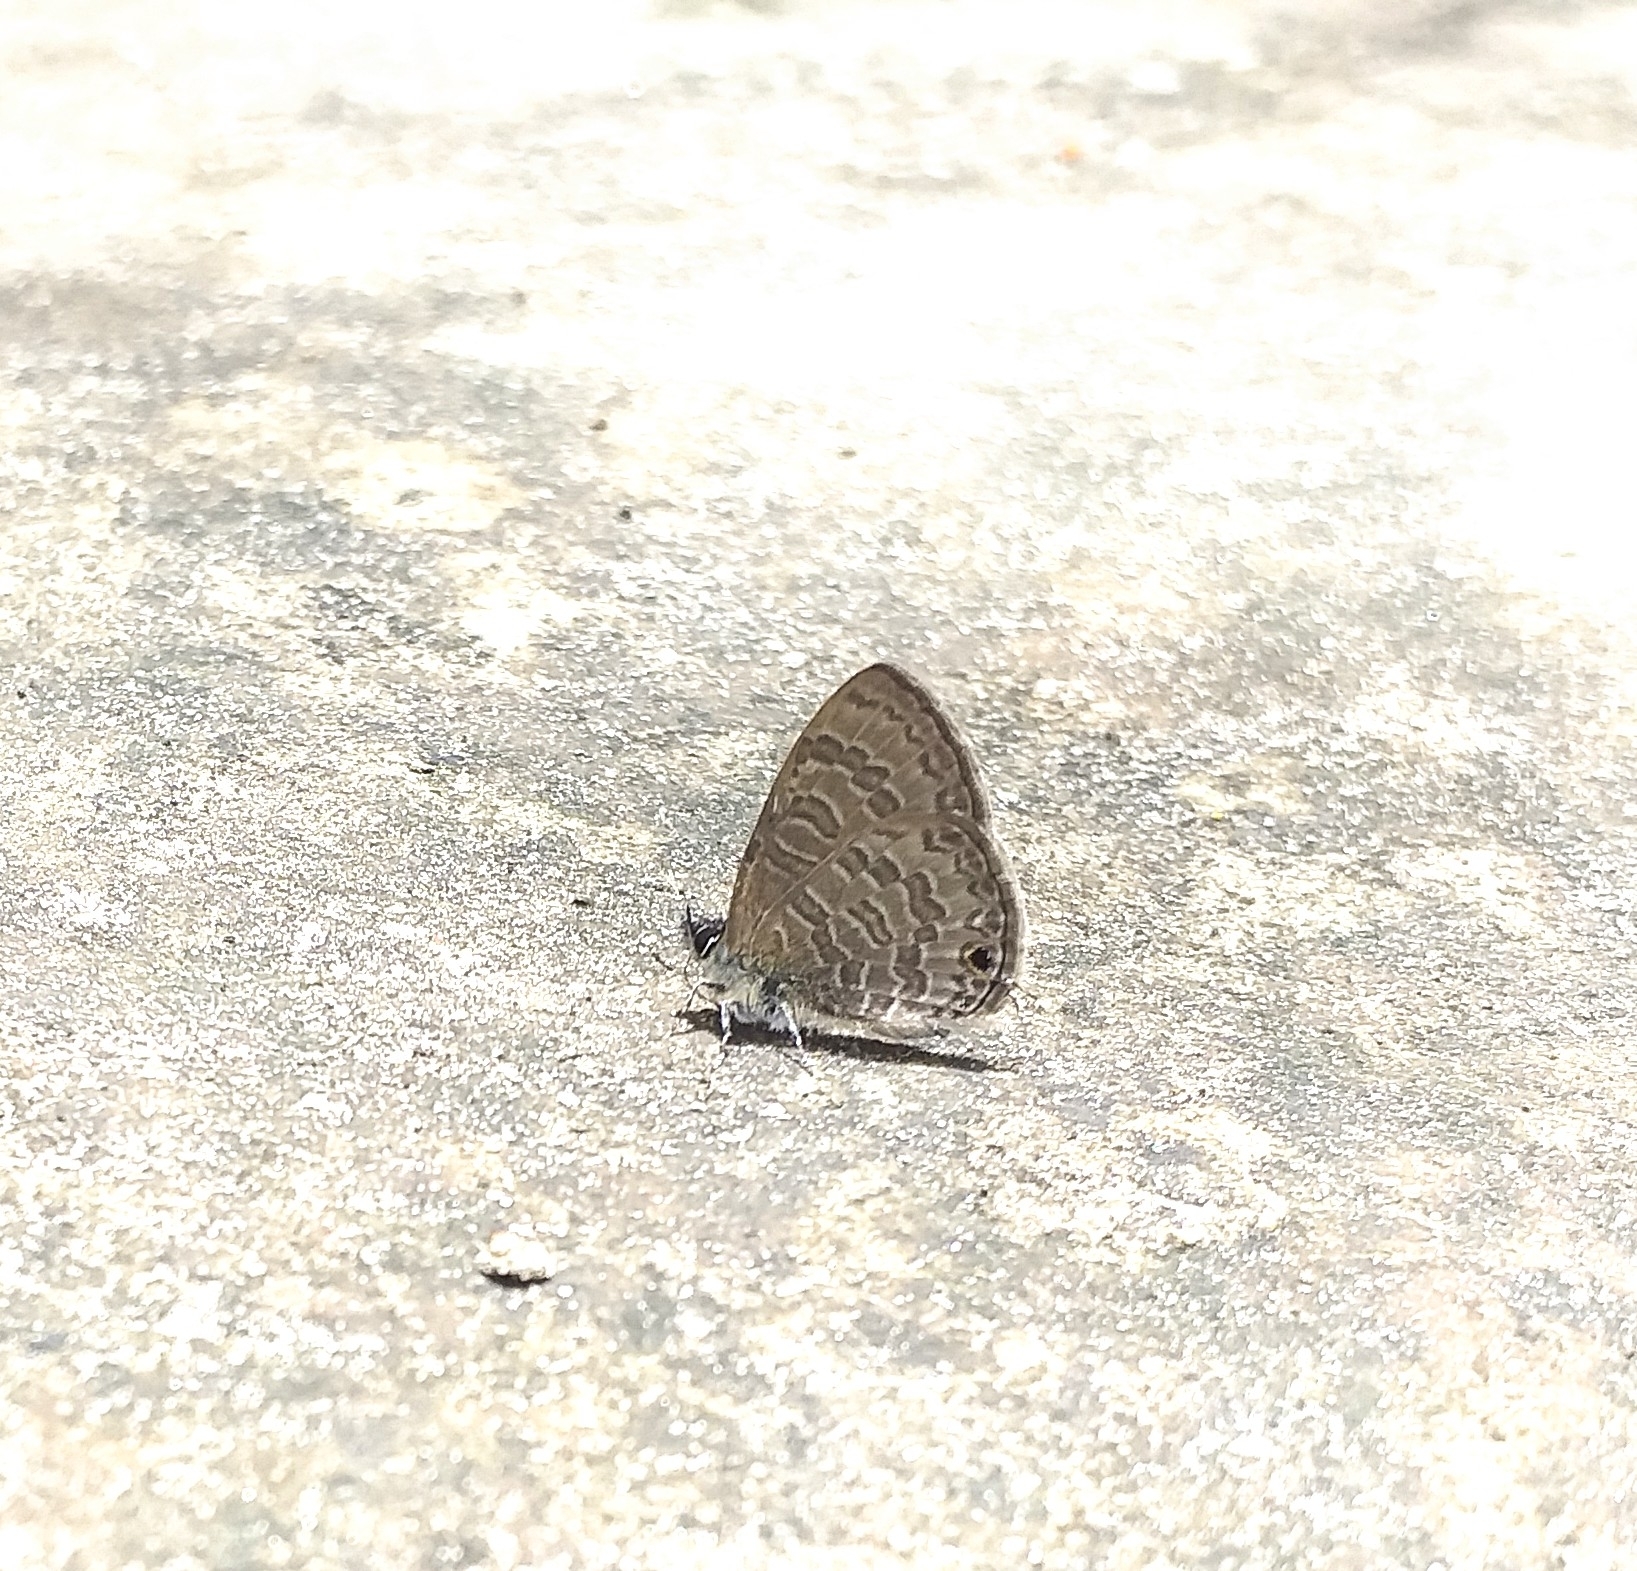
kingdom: Animalia
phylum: Arthropoda
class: Insecta
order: Lepidoptera
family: Lycaenidae
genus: Prosotas
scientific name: Prosotas nora
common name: Common line blue
